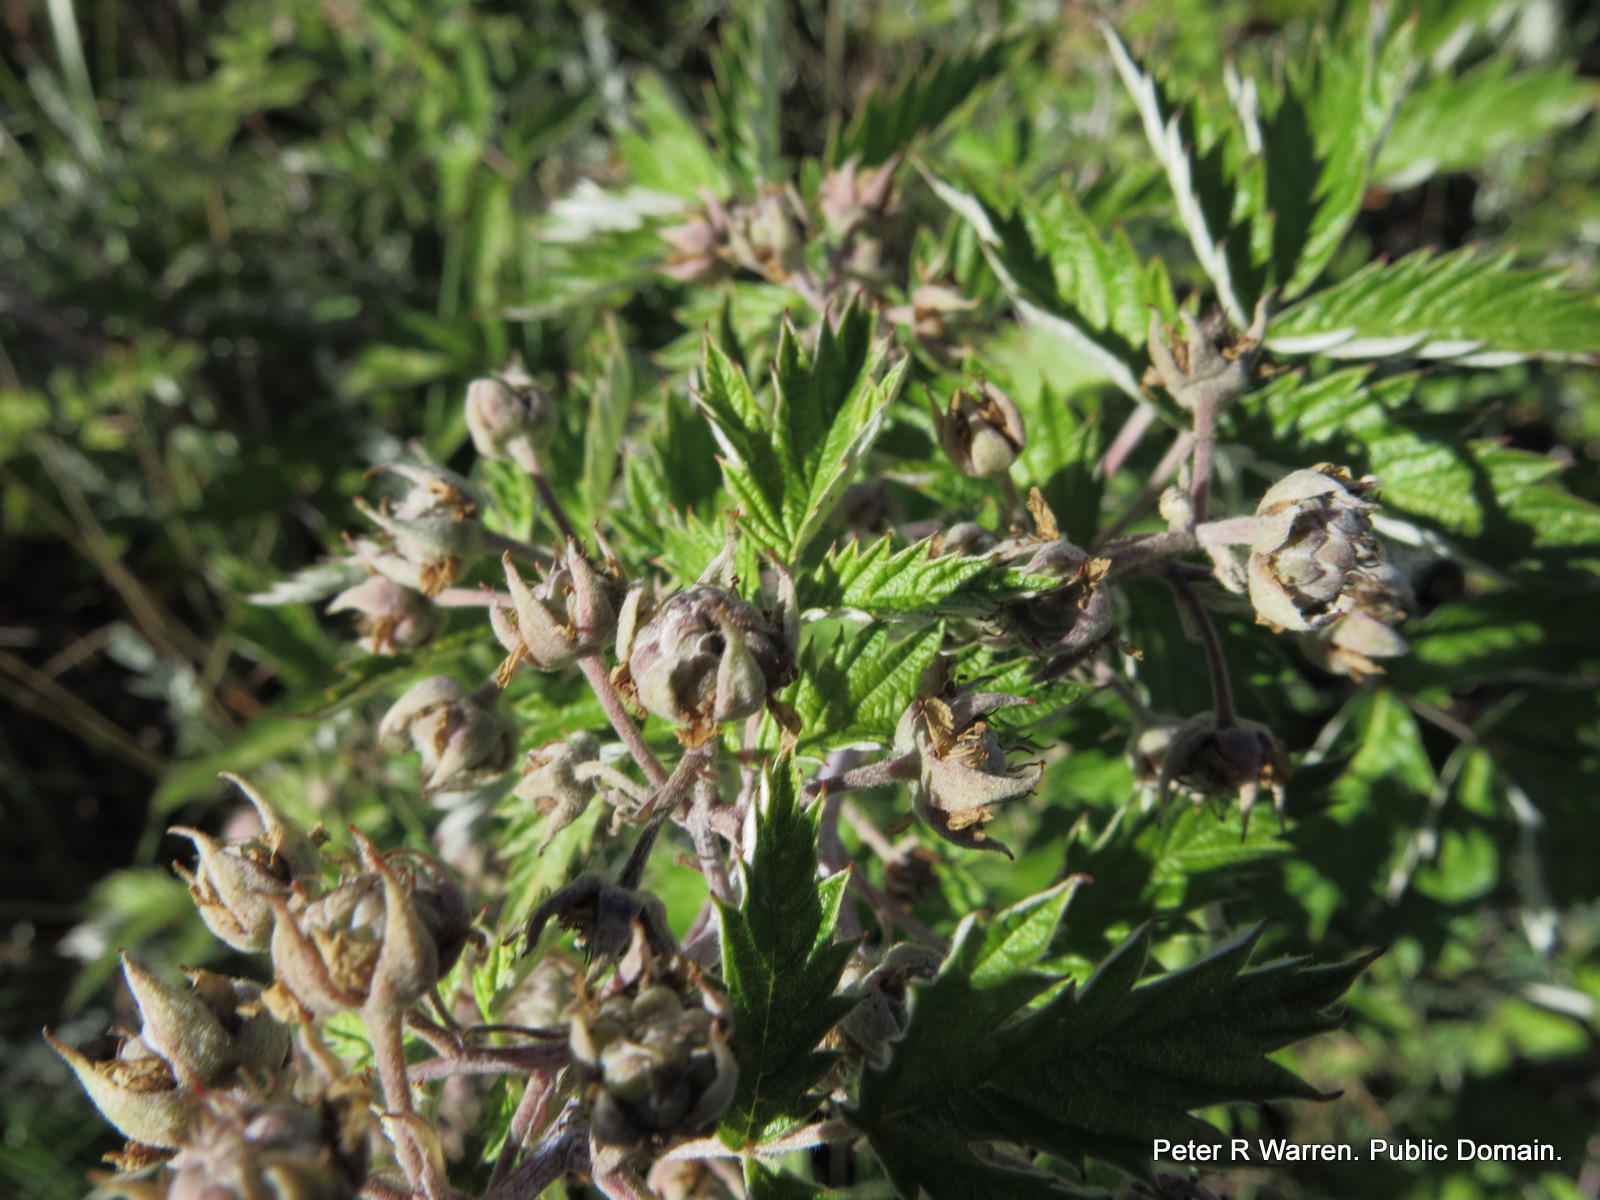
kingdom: Plantae
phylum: Tracheophyta
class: Magnoliopsida
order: Rosales
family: Rosaceae
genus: Rubus
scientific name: Rubus ludwigii
